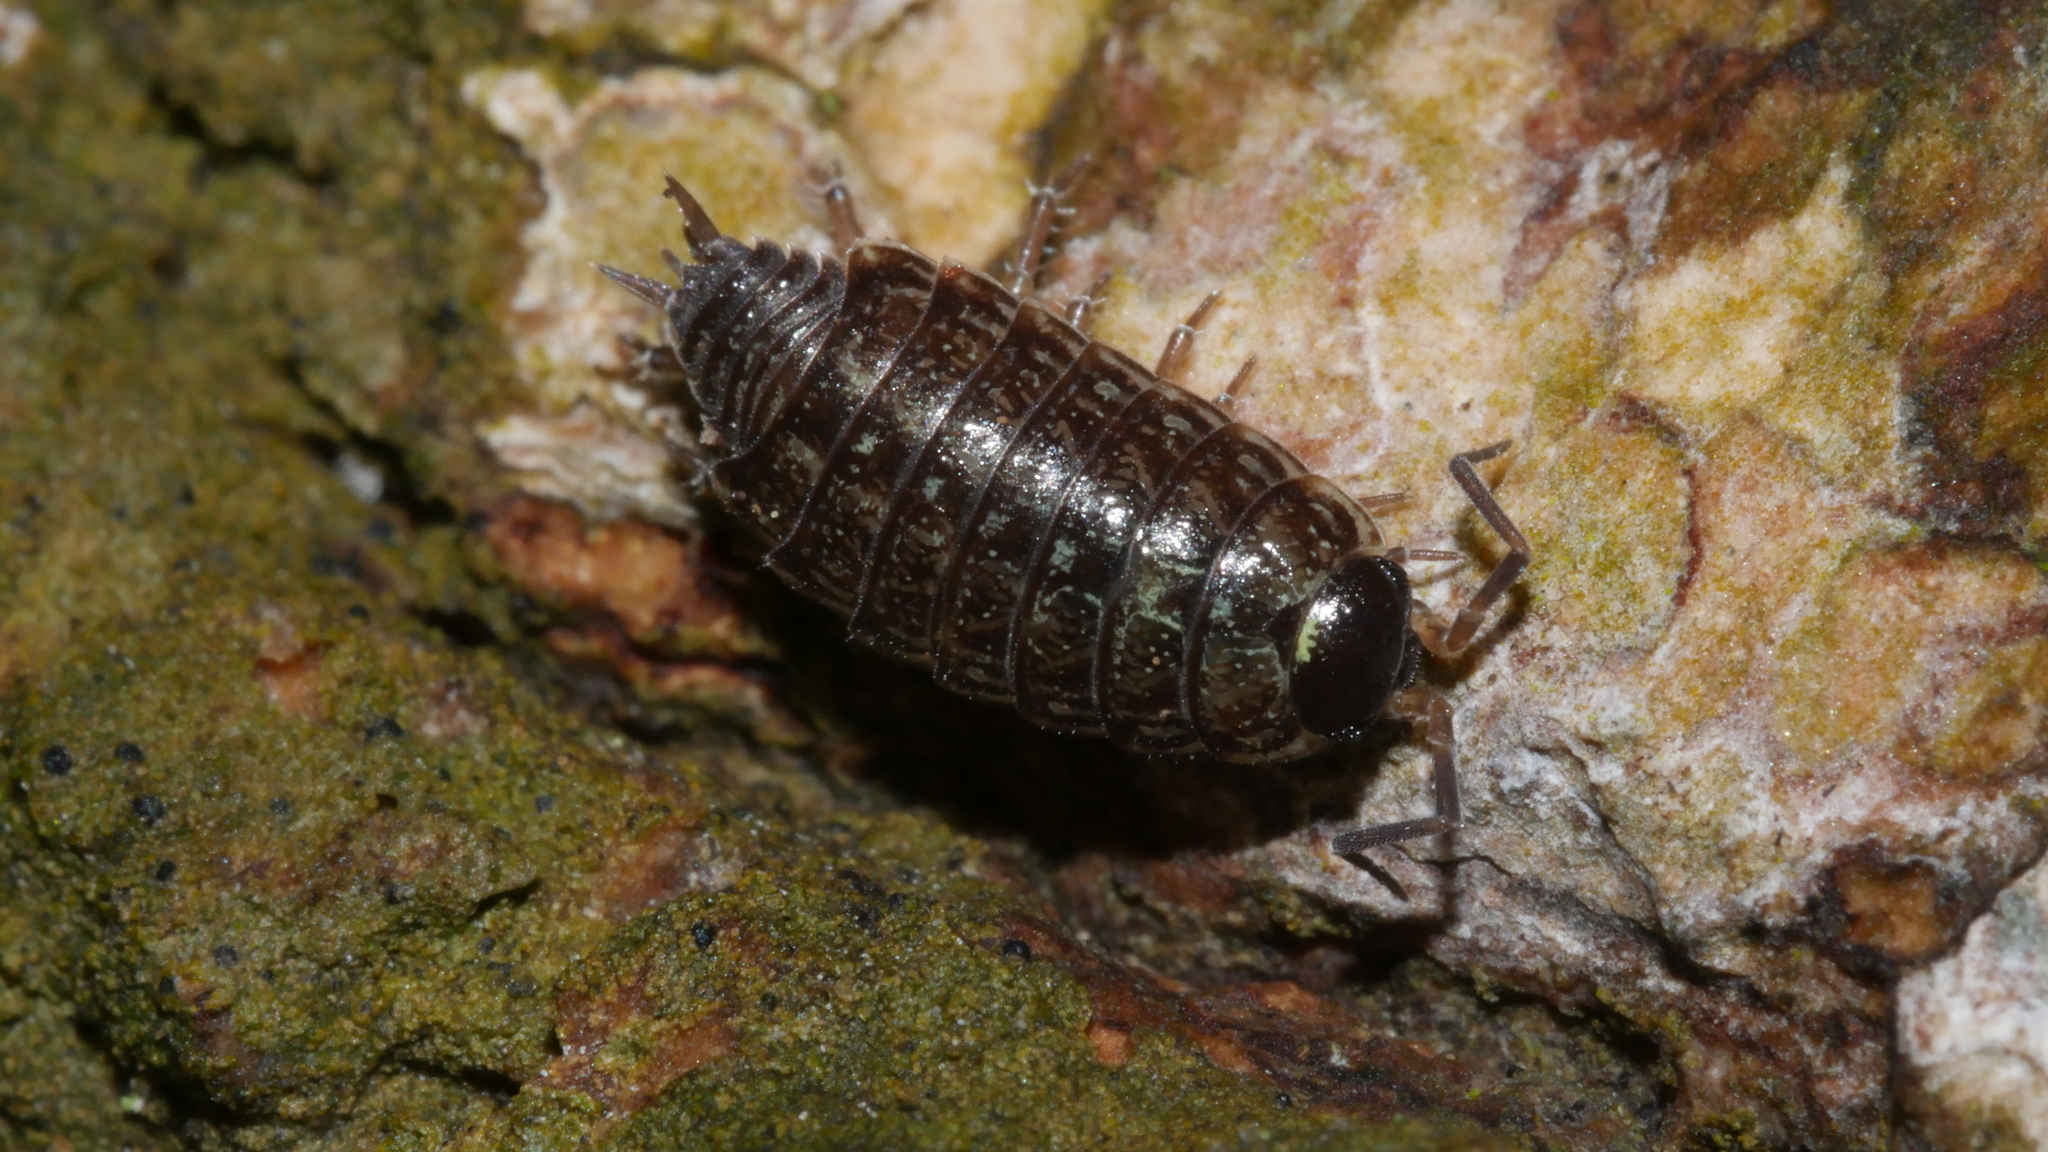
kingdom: Animalia
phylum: Arthropoda
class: Malacostraca
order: Isopoda
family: Philosciidae
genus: Philoscia
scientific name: Philoscia muscorum
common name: Common striped woodlouse
